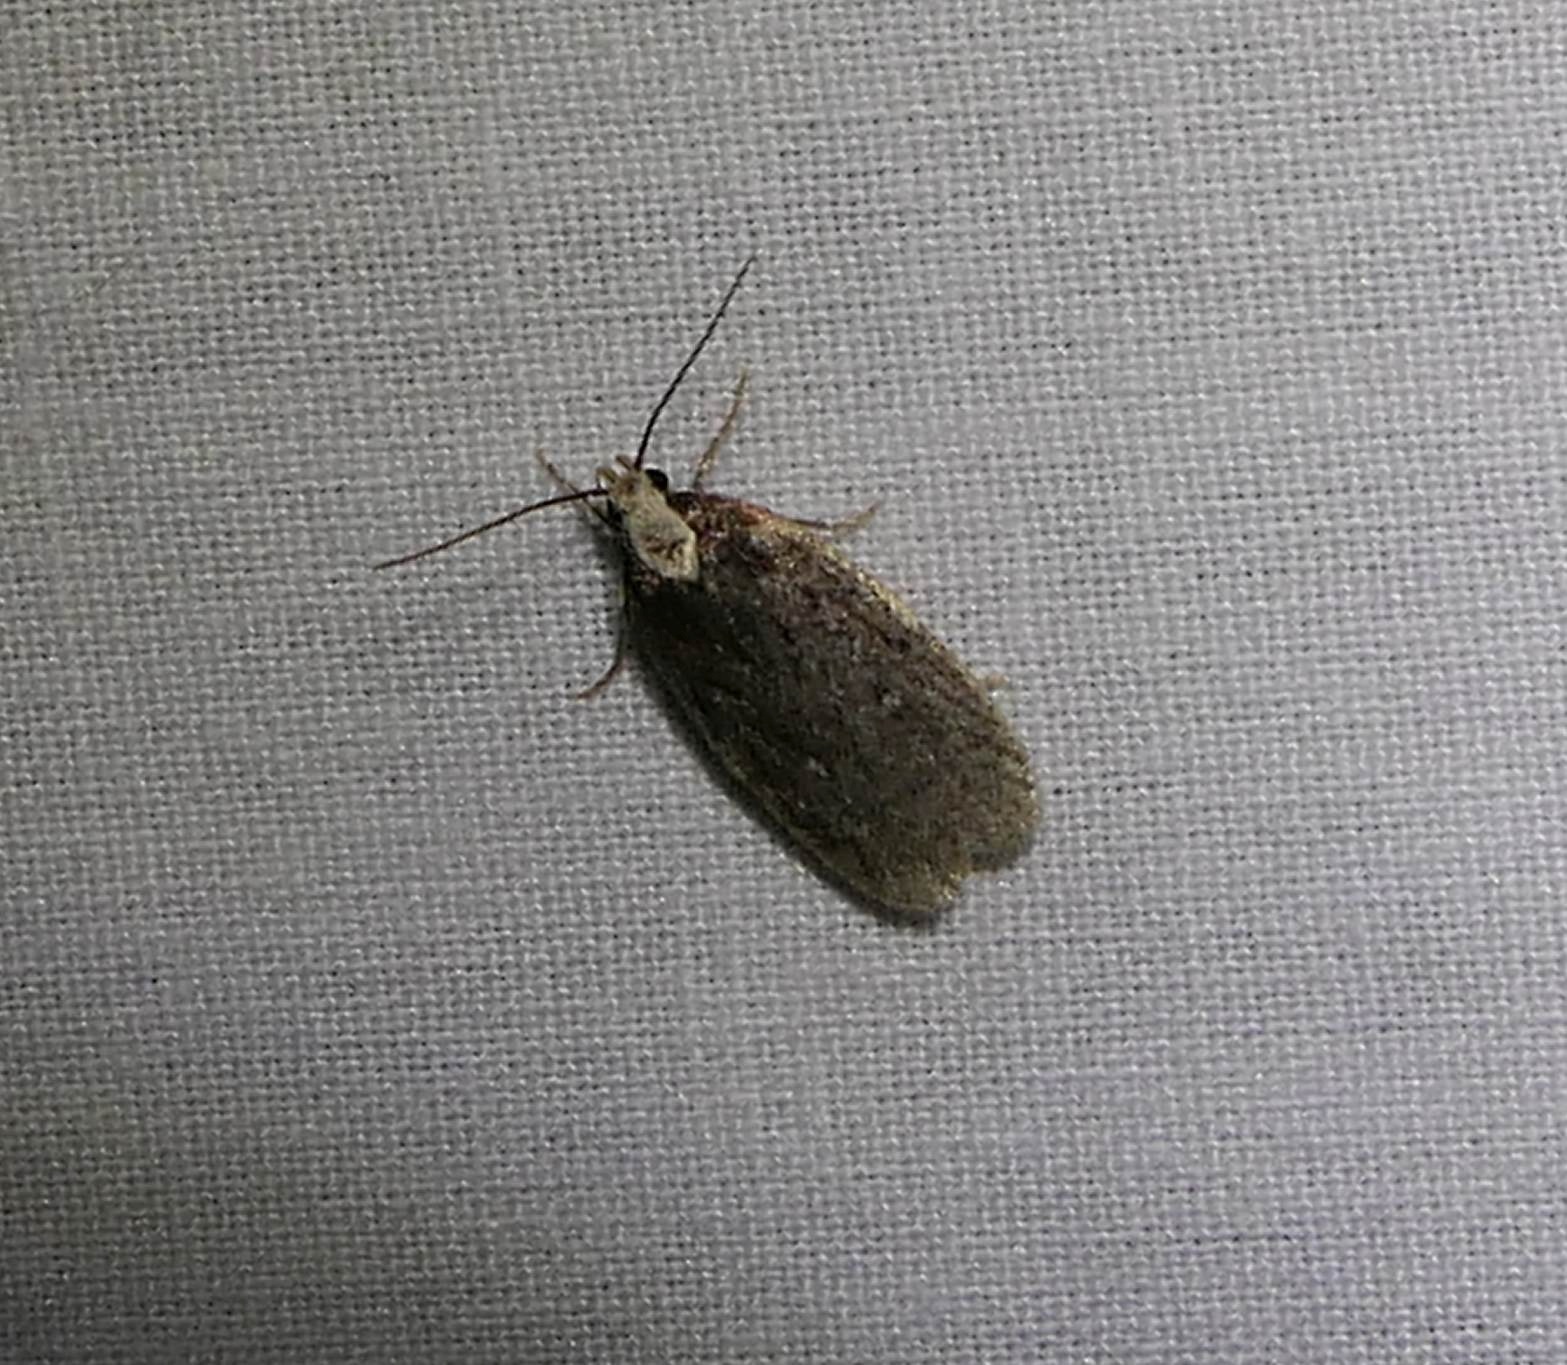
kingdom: Animalia
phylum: Arthropoda
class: Insecta
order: Lepidoptera
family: Depressariidae
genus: Depressaria
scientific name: Depressaria alienella
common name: Yarrow webworm
